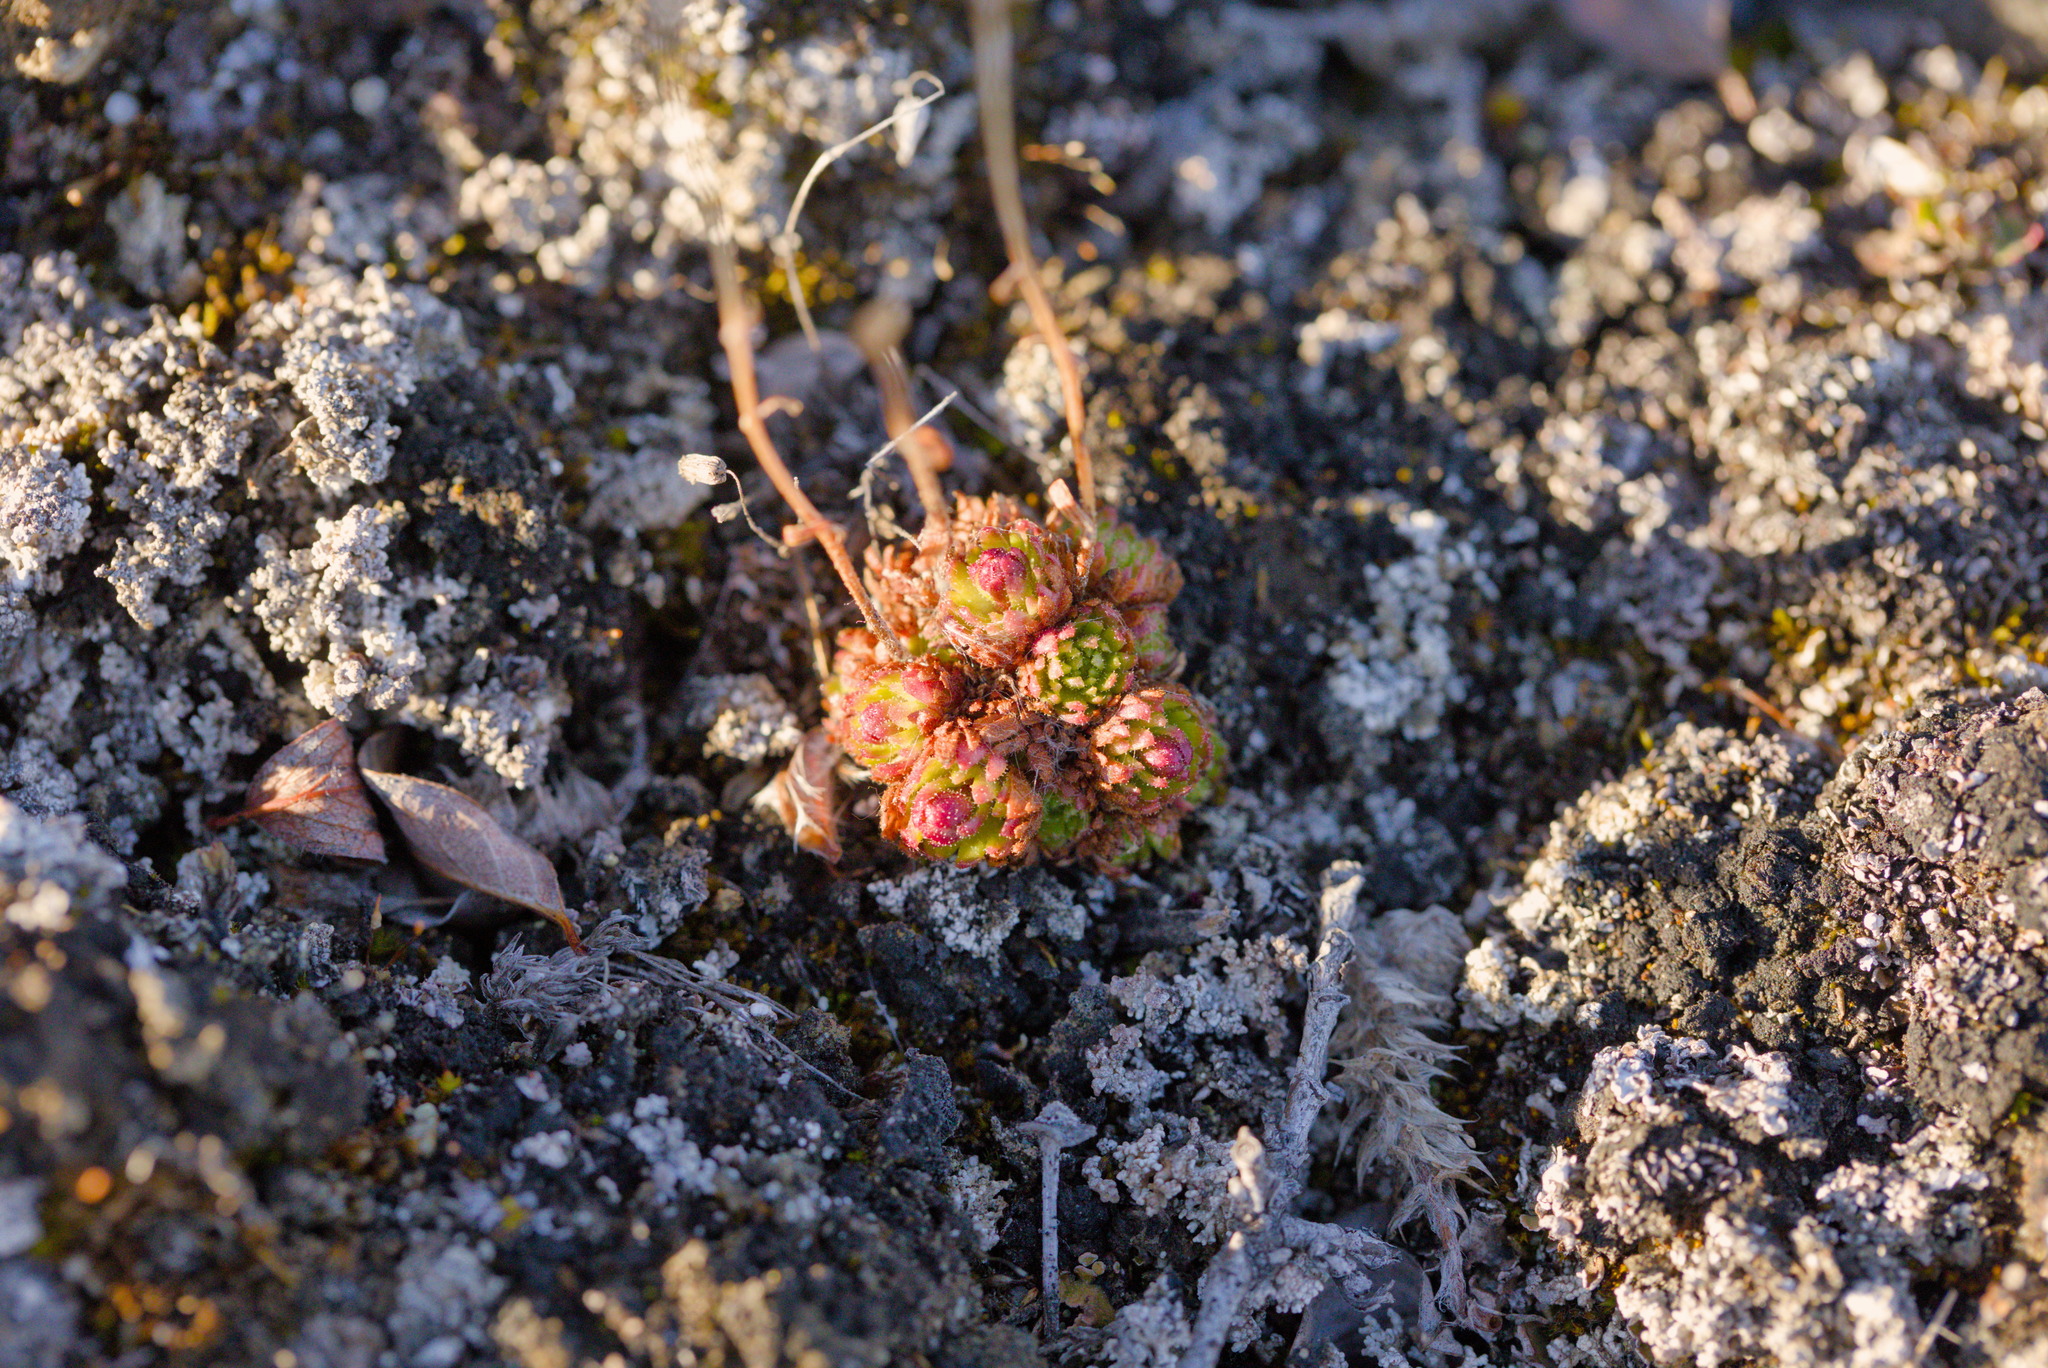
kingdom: Plantae
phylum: Tracheophyta
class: Magnoliopsida
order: Saxifragales
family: Saxifragaceae
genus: Saxifraga
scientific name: Saxifraga cespitosa
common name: Tufted saxifrage
